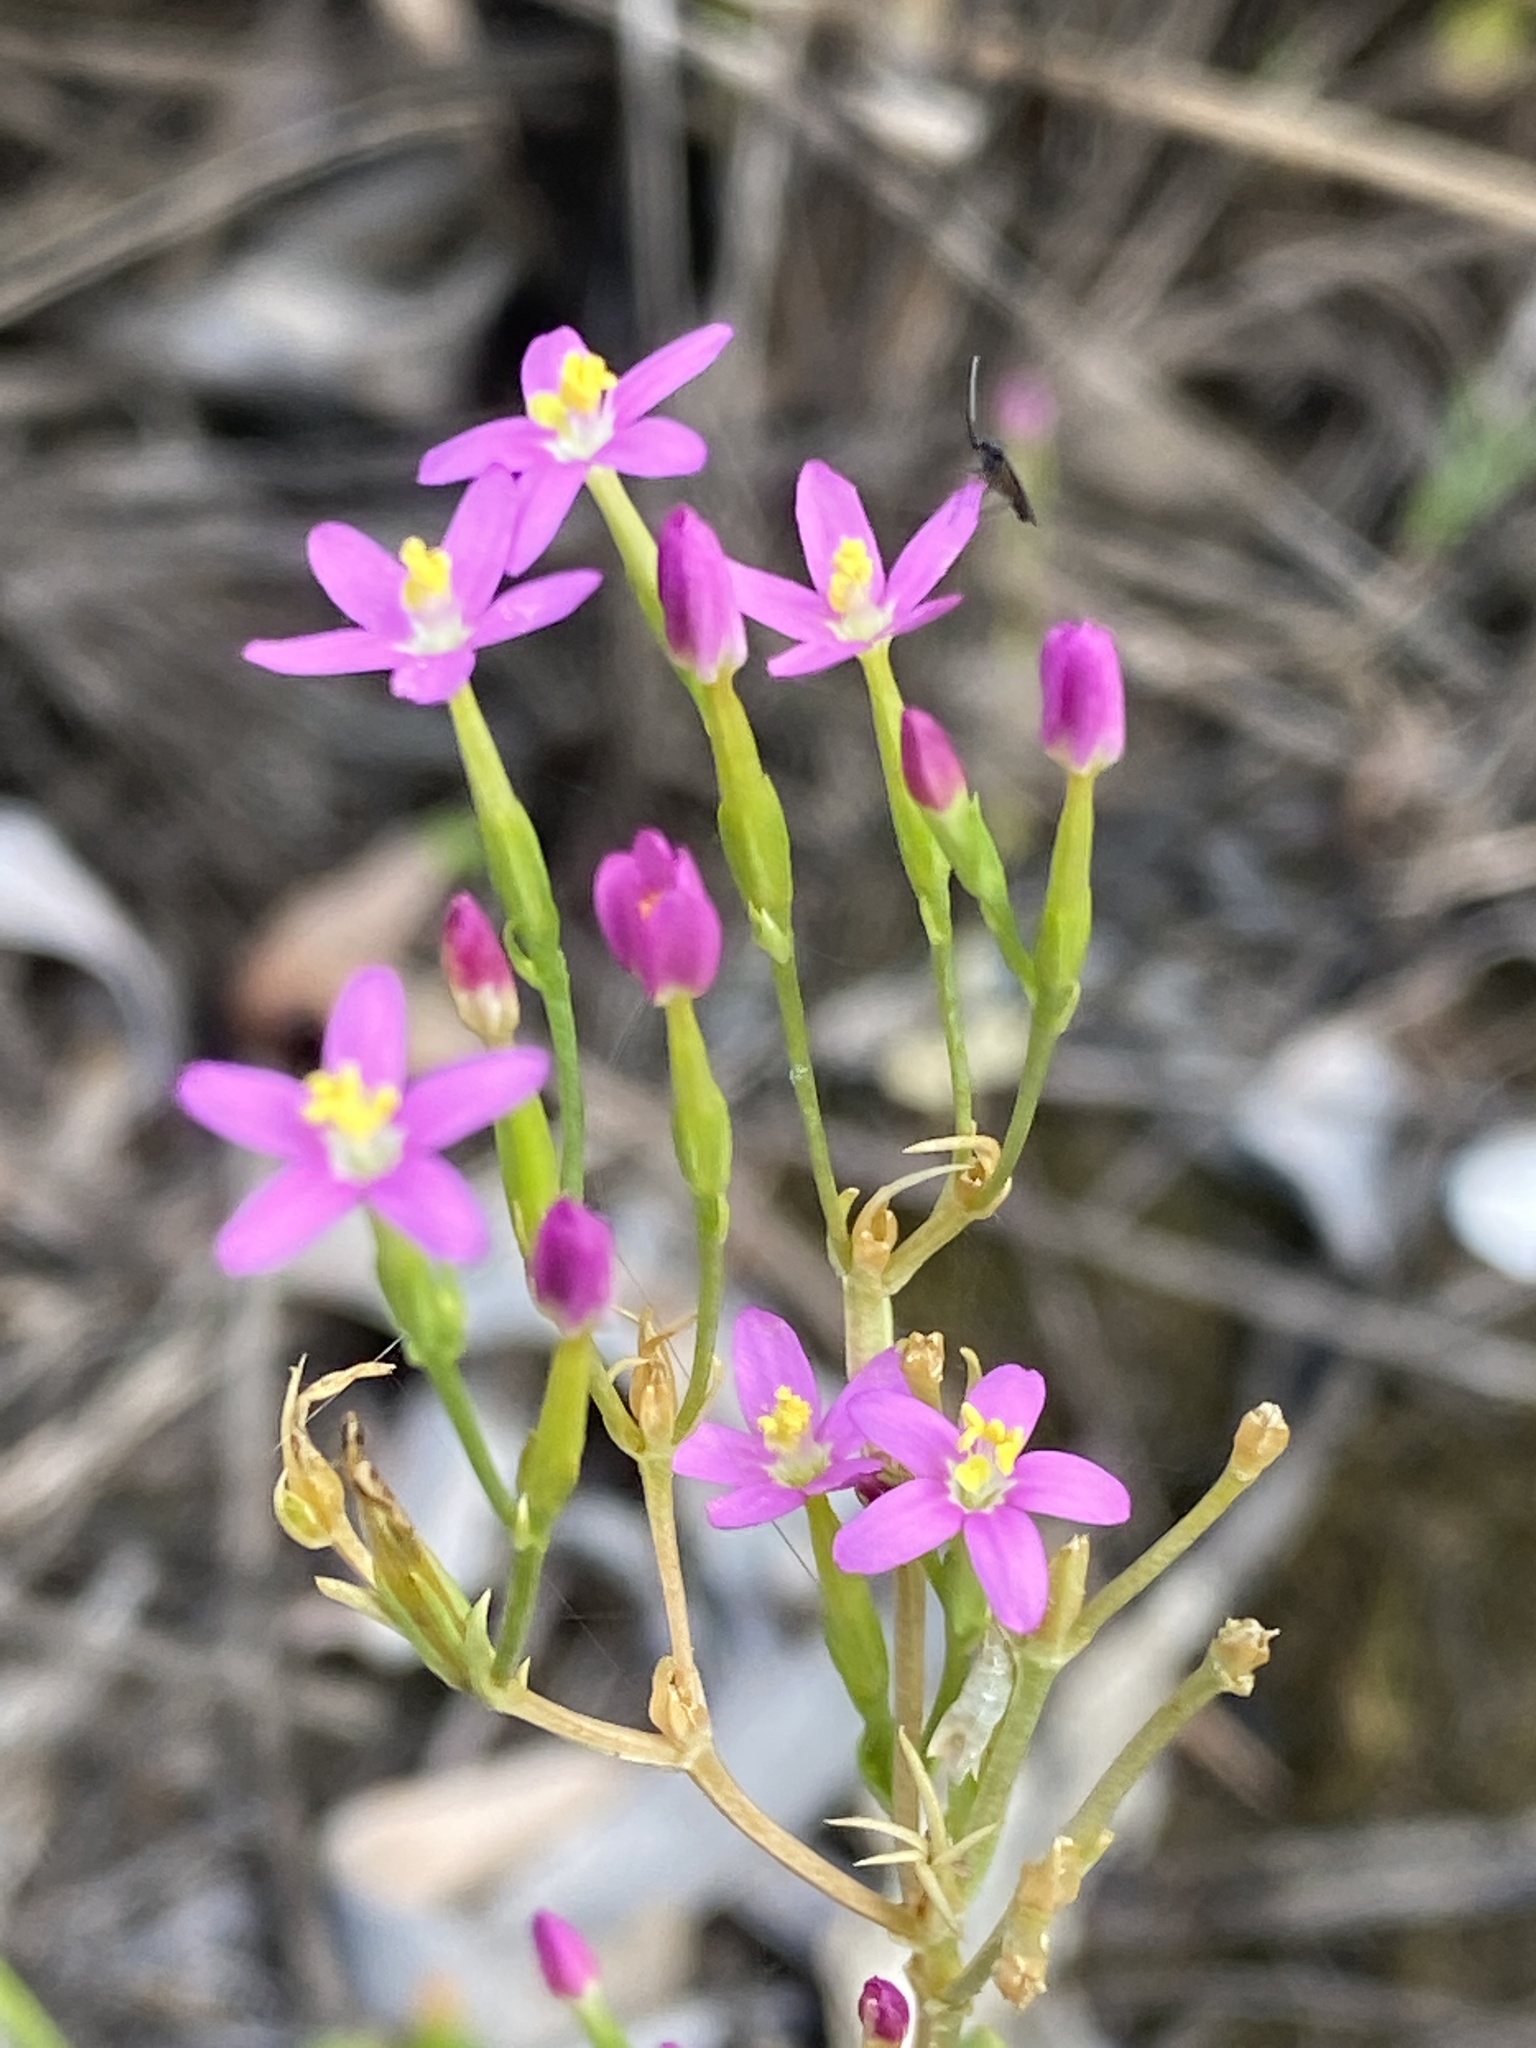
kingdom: Plantae
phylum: Tracheophyta
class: Magnoliopsida
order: Gentianales
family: Gentianaceae
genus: Centaurium
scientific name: Centaurium erythraea
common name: Common centaury
